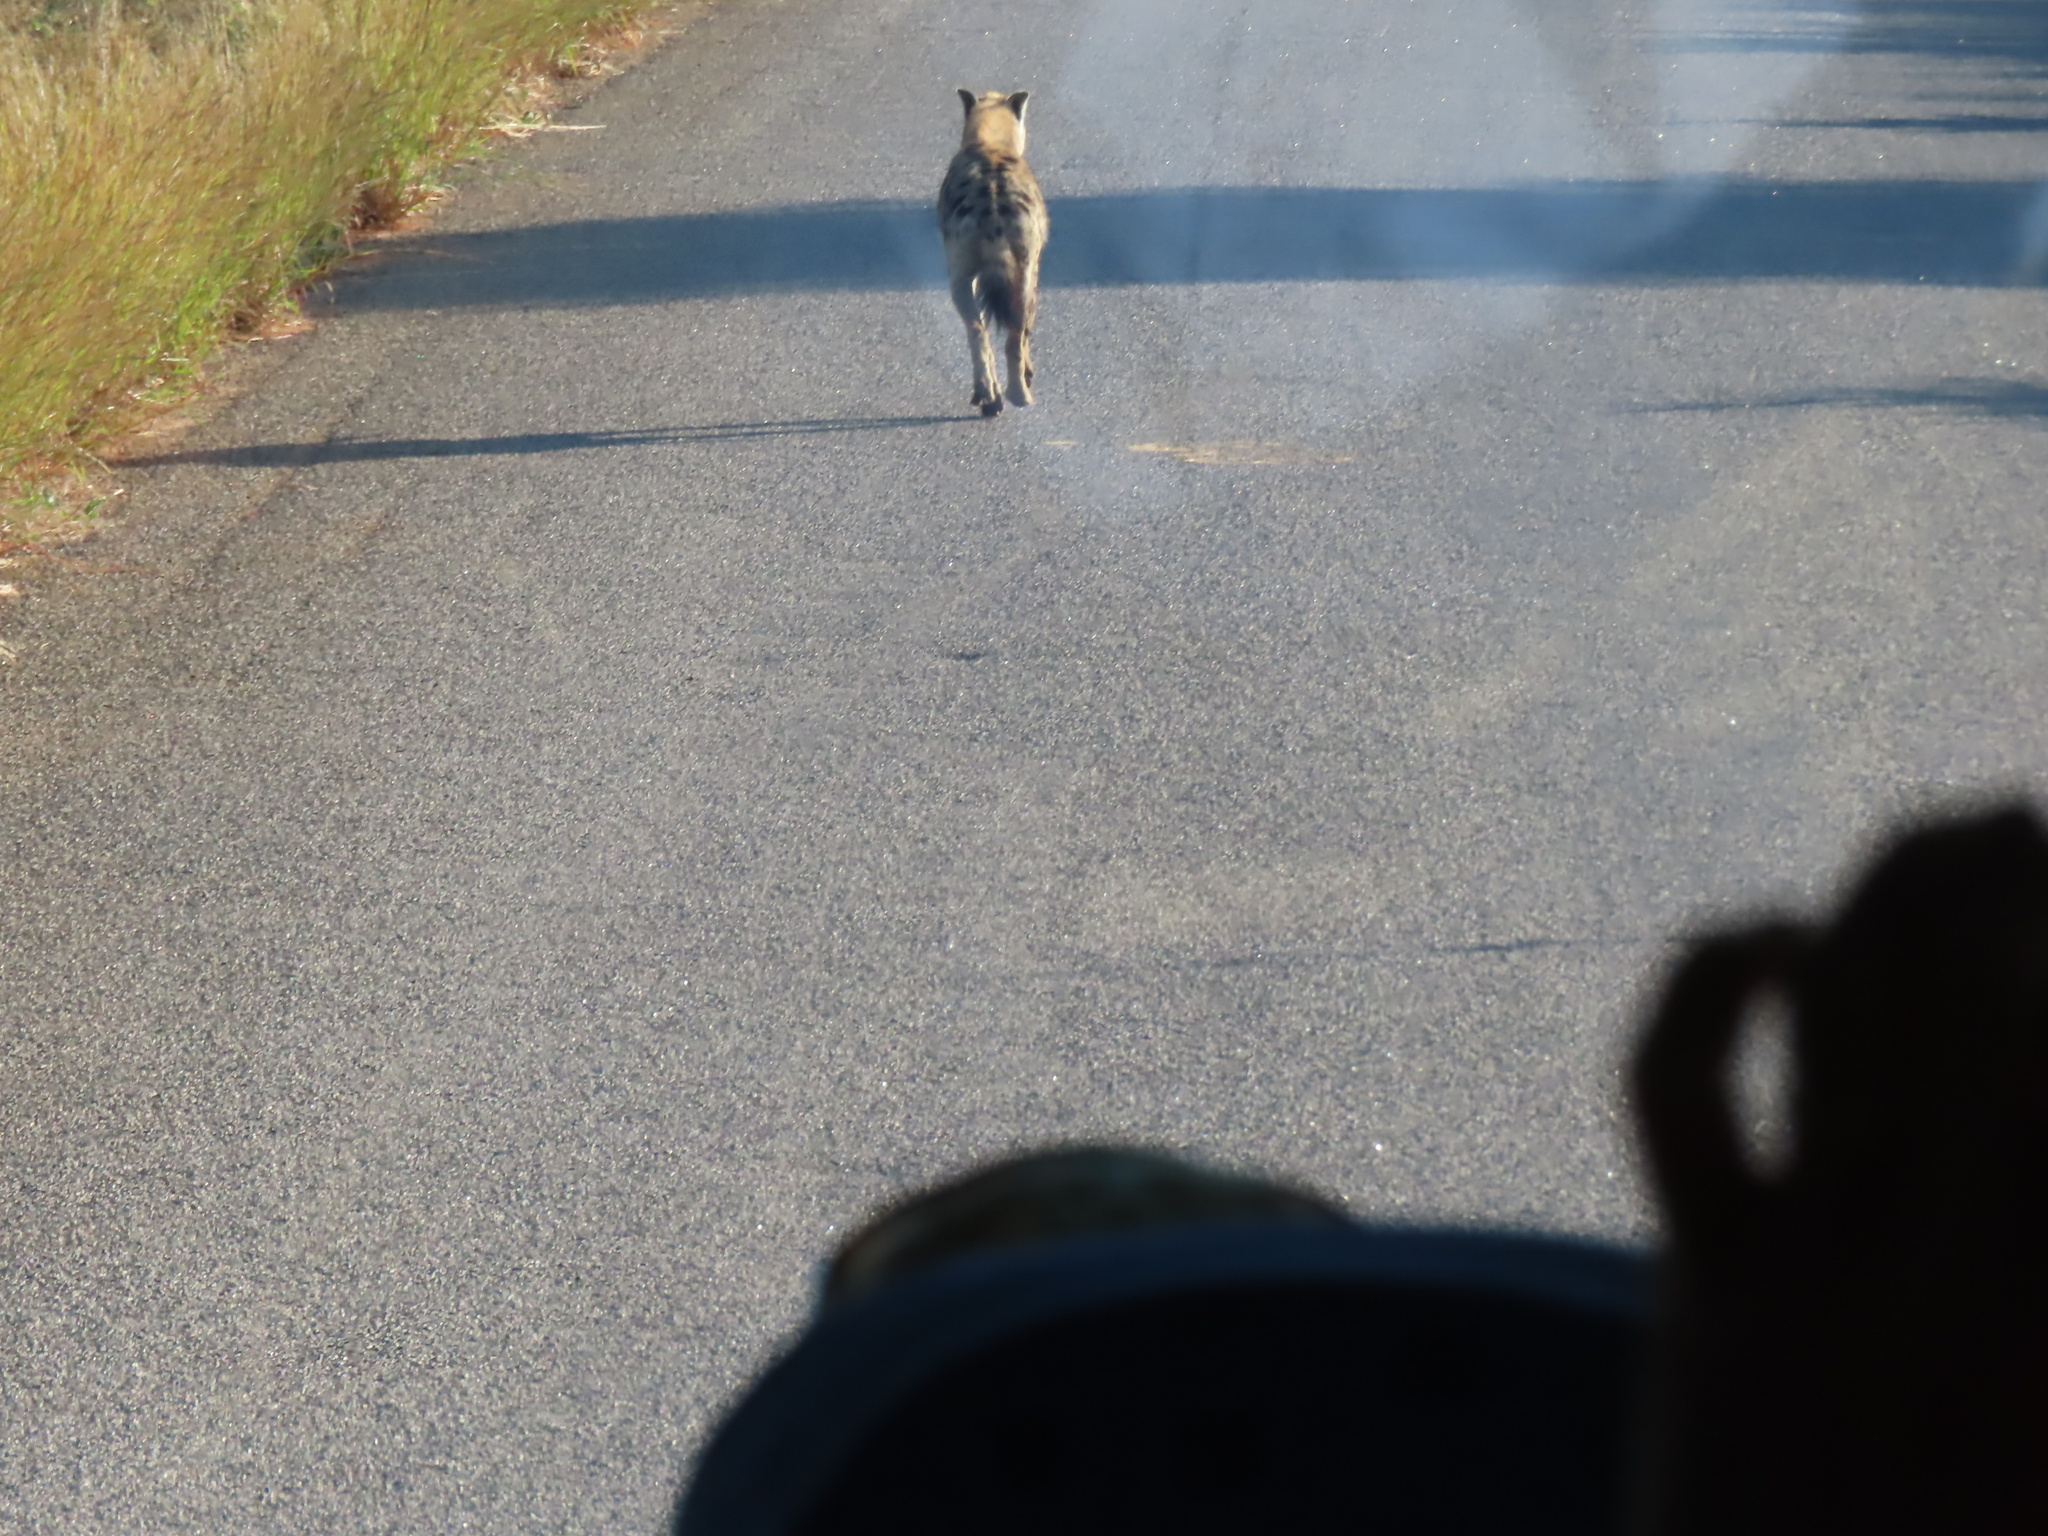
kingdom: Animalia
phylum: Chordata
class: Mammalia
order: Carnivora
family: Hyaenidae
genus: Crocuta
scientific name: Crocuta crocuta
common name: Spotted hyaena
